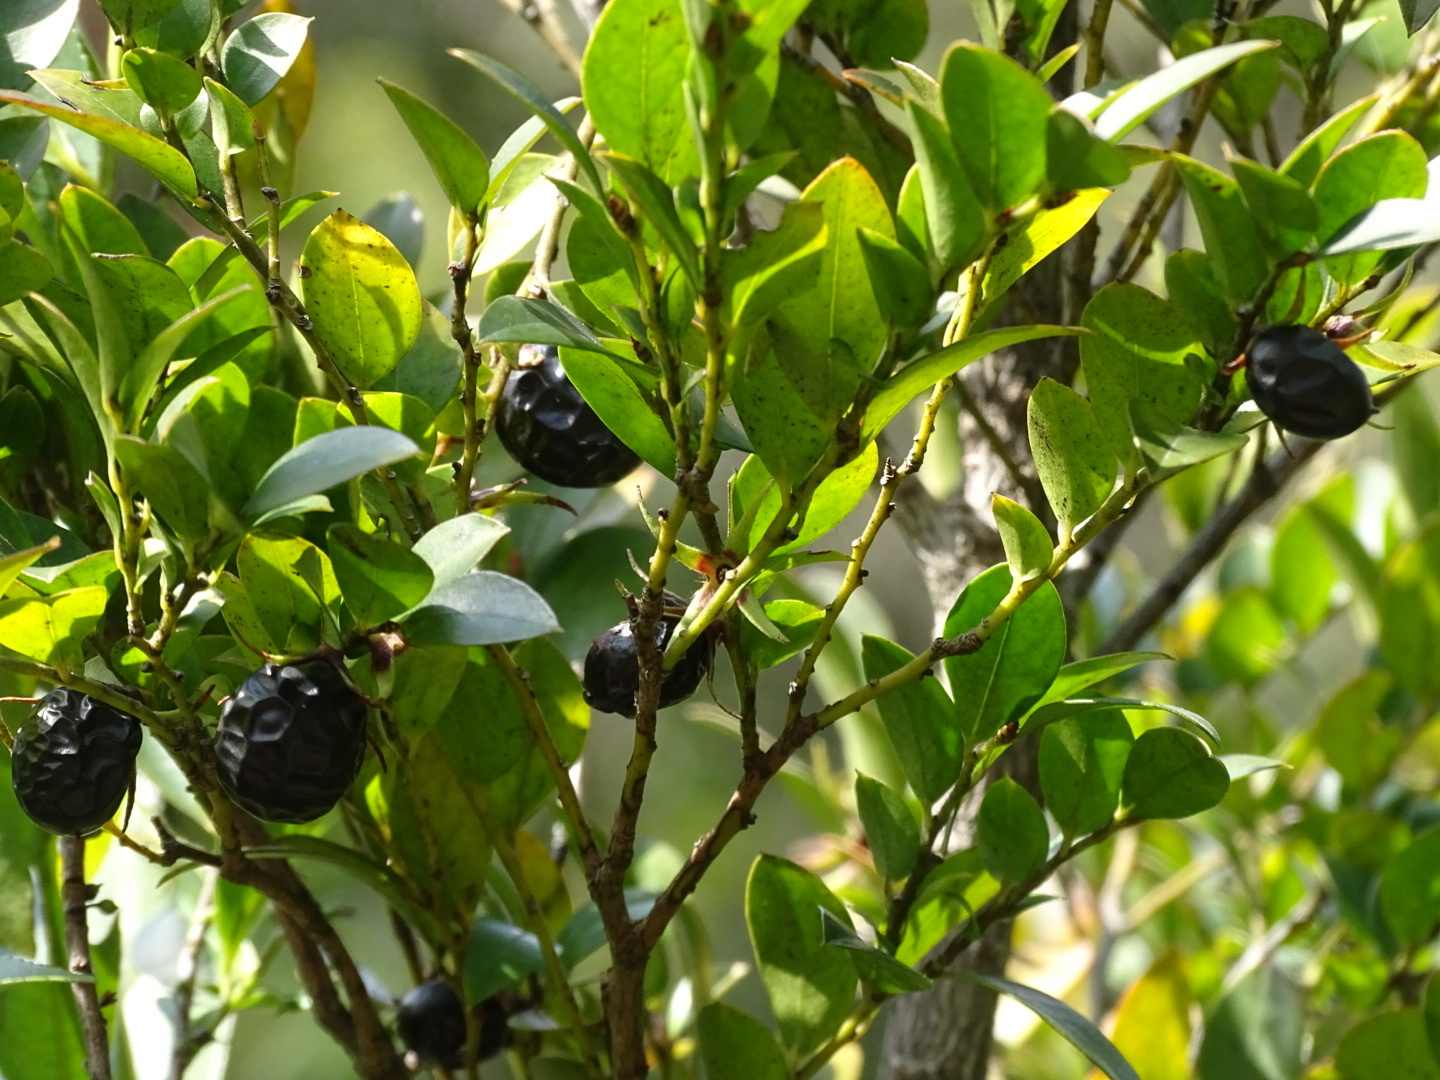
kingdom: Plantae
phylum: Tracheophyta
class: Magnoliopsida
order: Ericales
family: Ebenaceae
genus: Diospyros
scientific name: Diospyros vaccinioides
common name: Small persimmon
